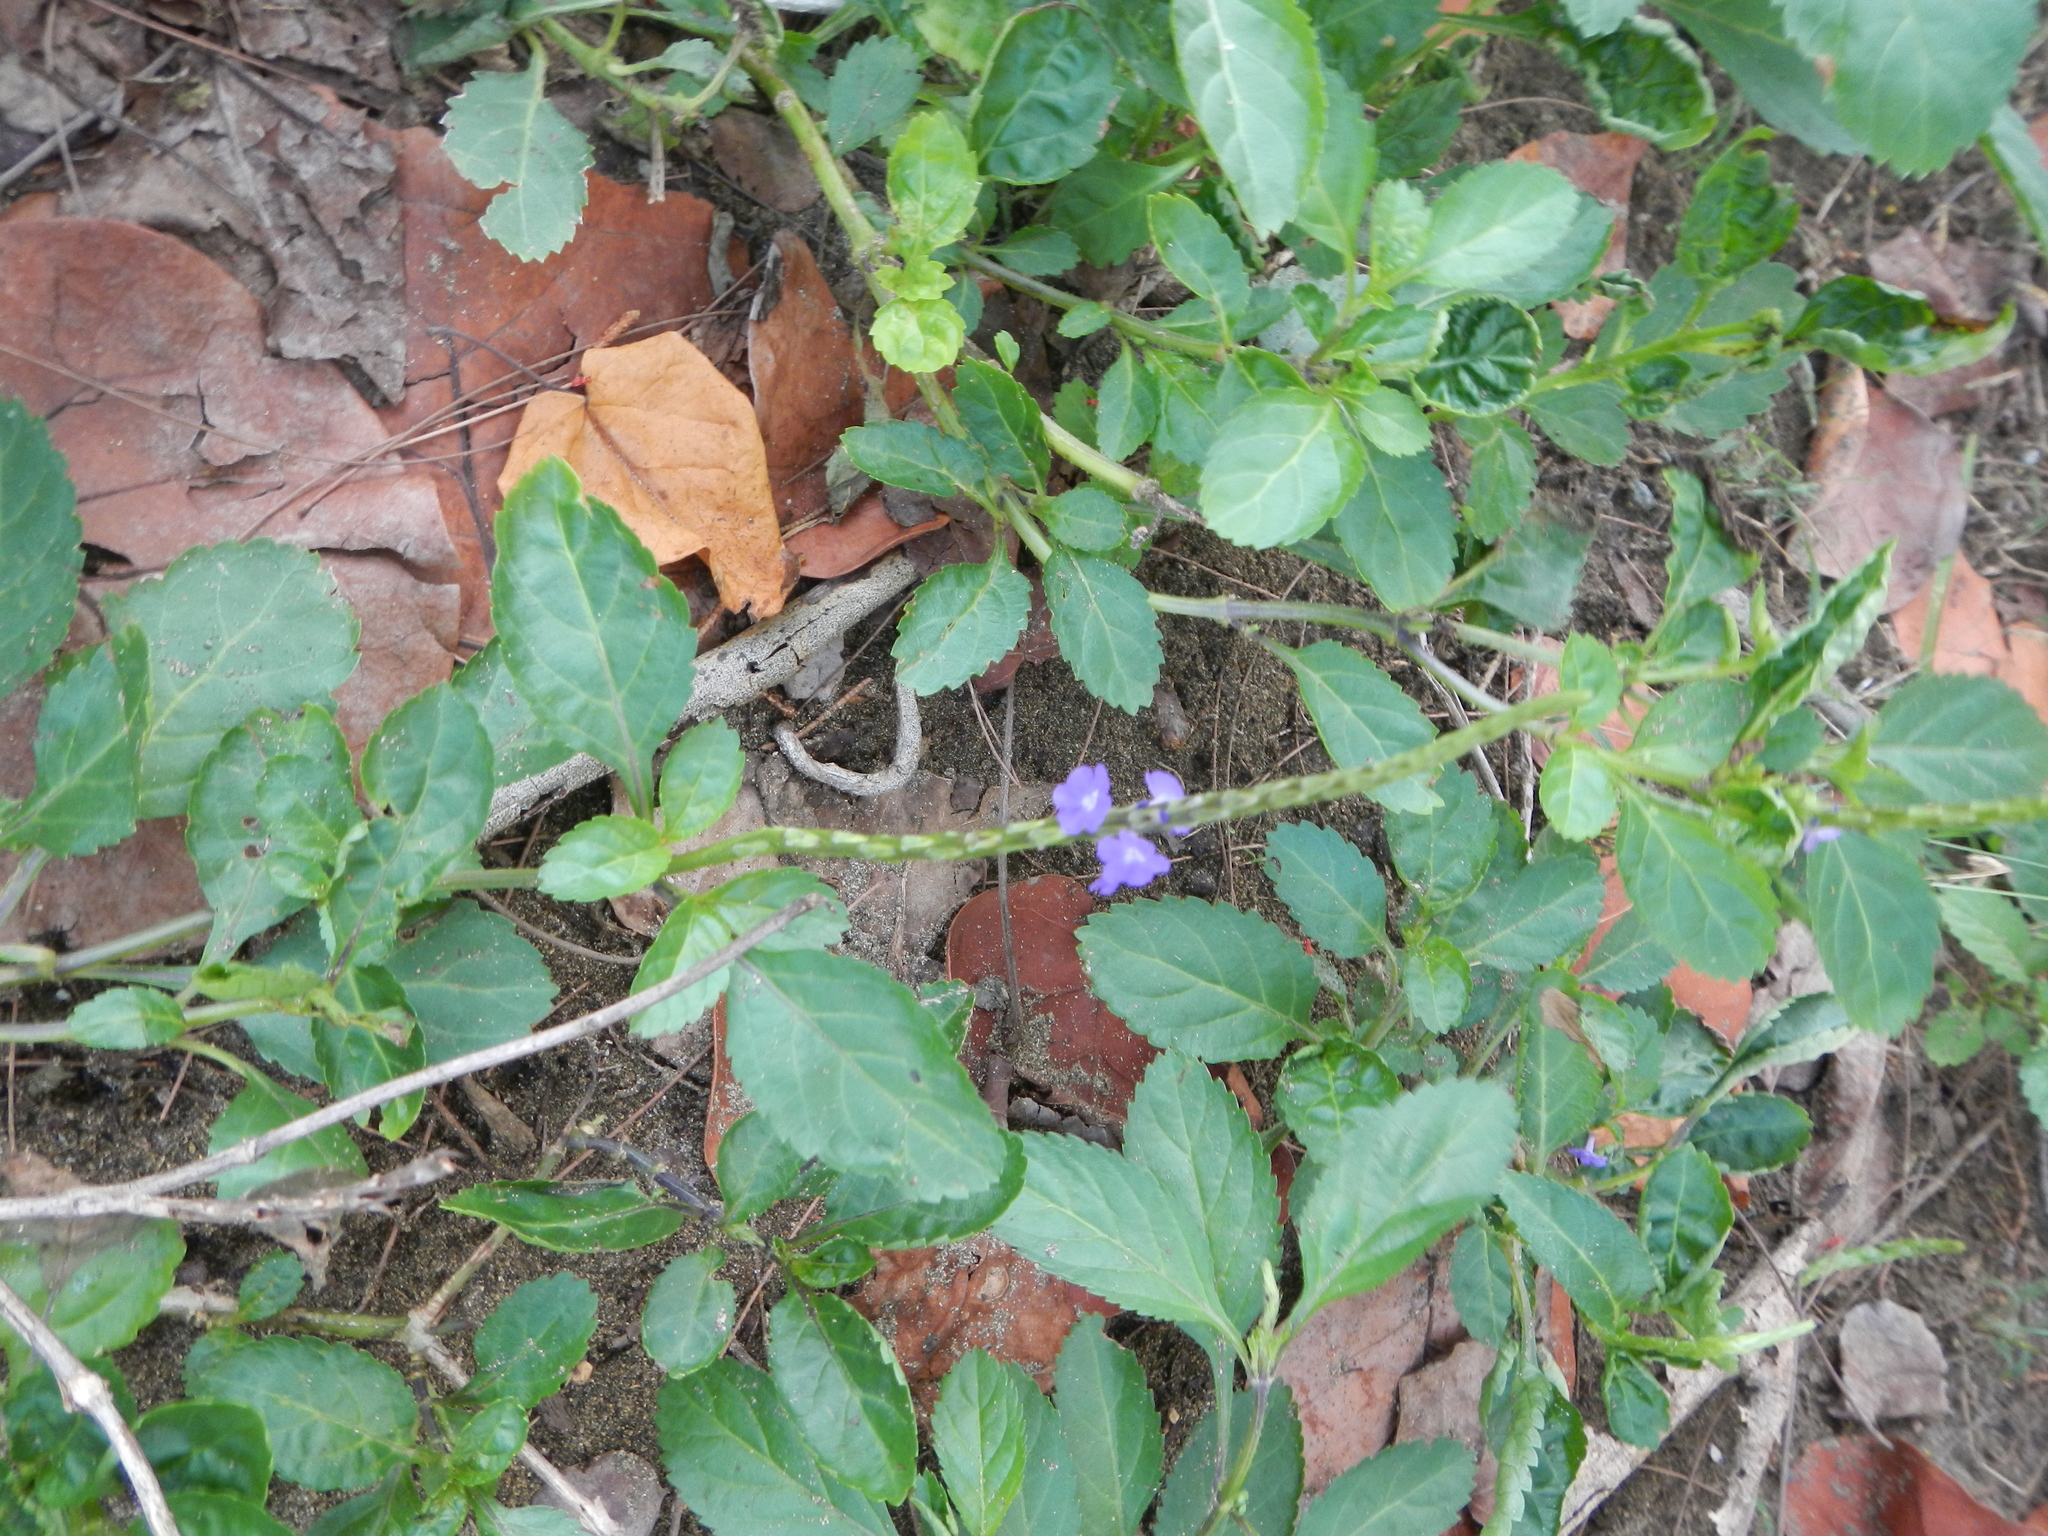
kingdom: Plantae
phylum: Tracheophyta
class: Magnoliopsida
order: Lamiales
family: Verbenaceae
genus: Stachytarpheta
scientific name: Stachytarpheta jamaicensis
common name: Light-blue snakeweed
